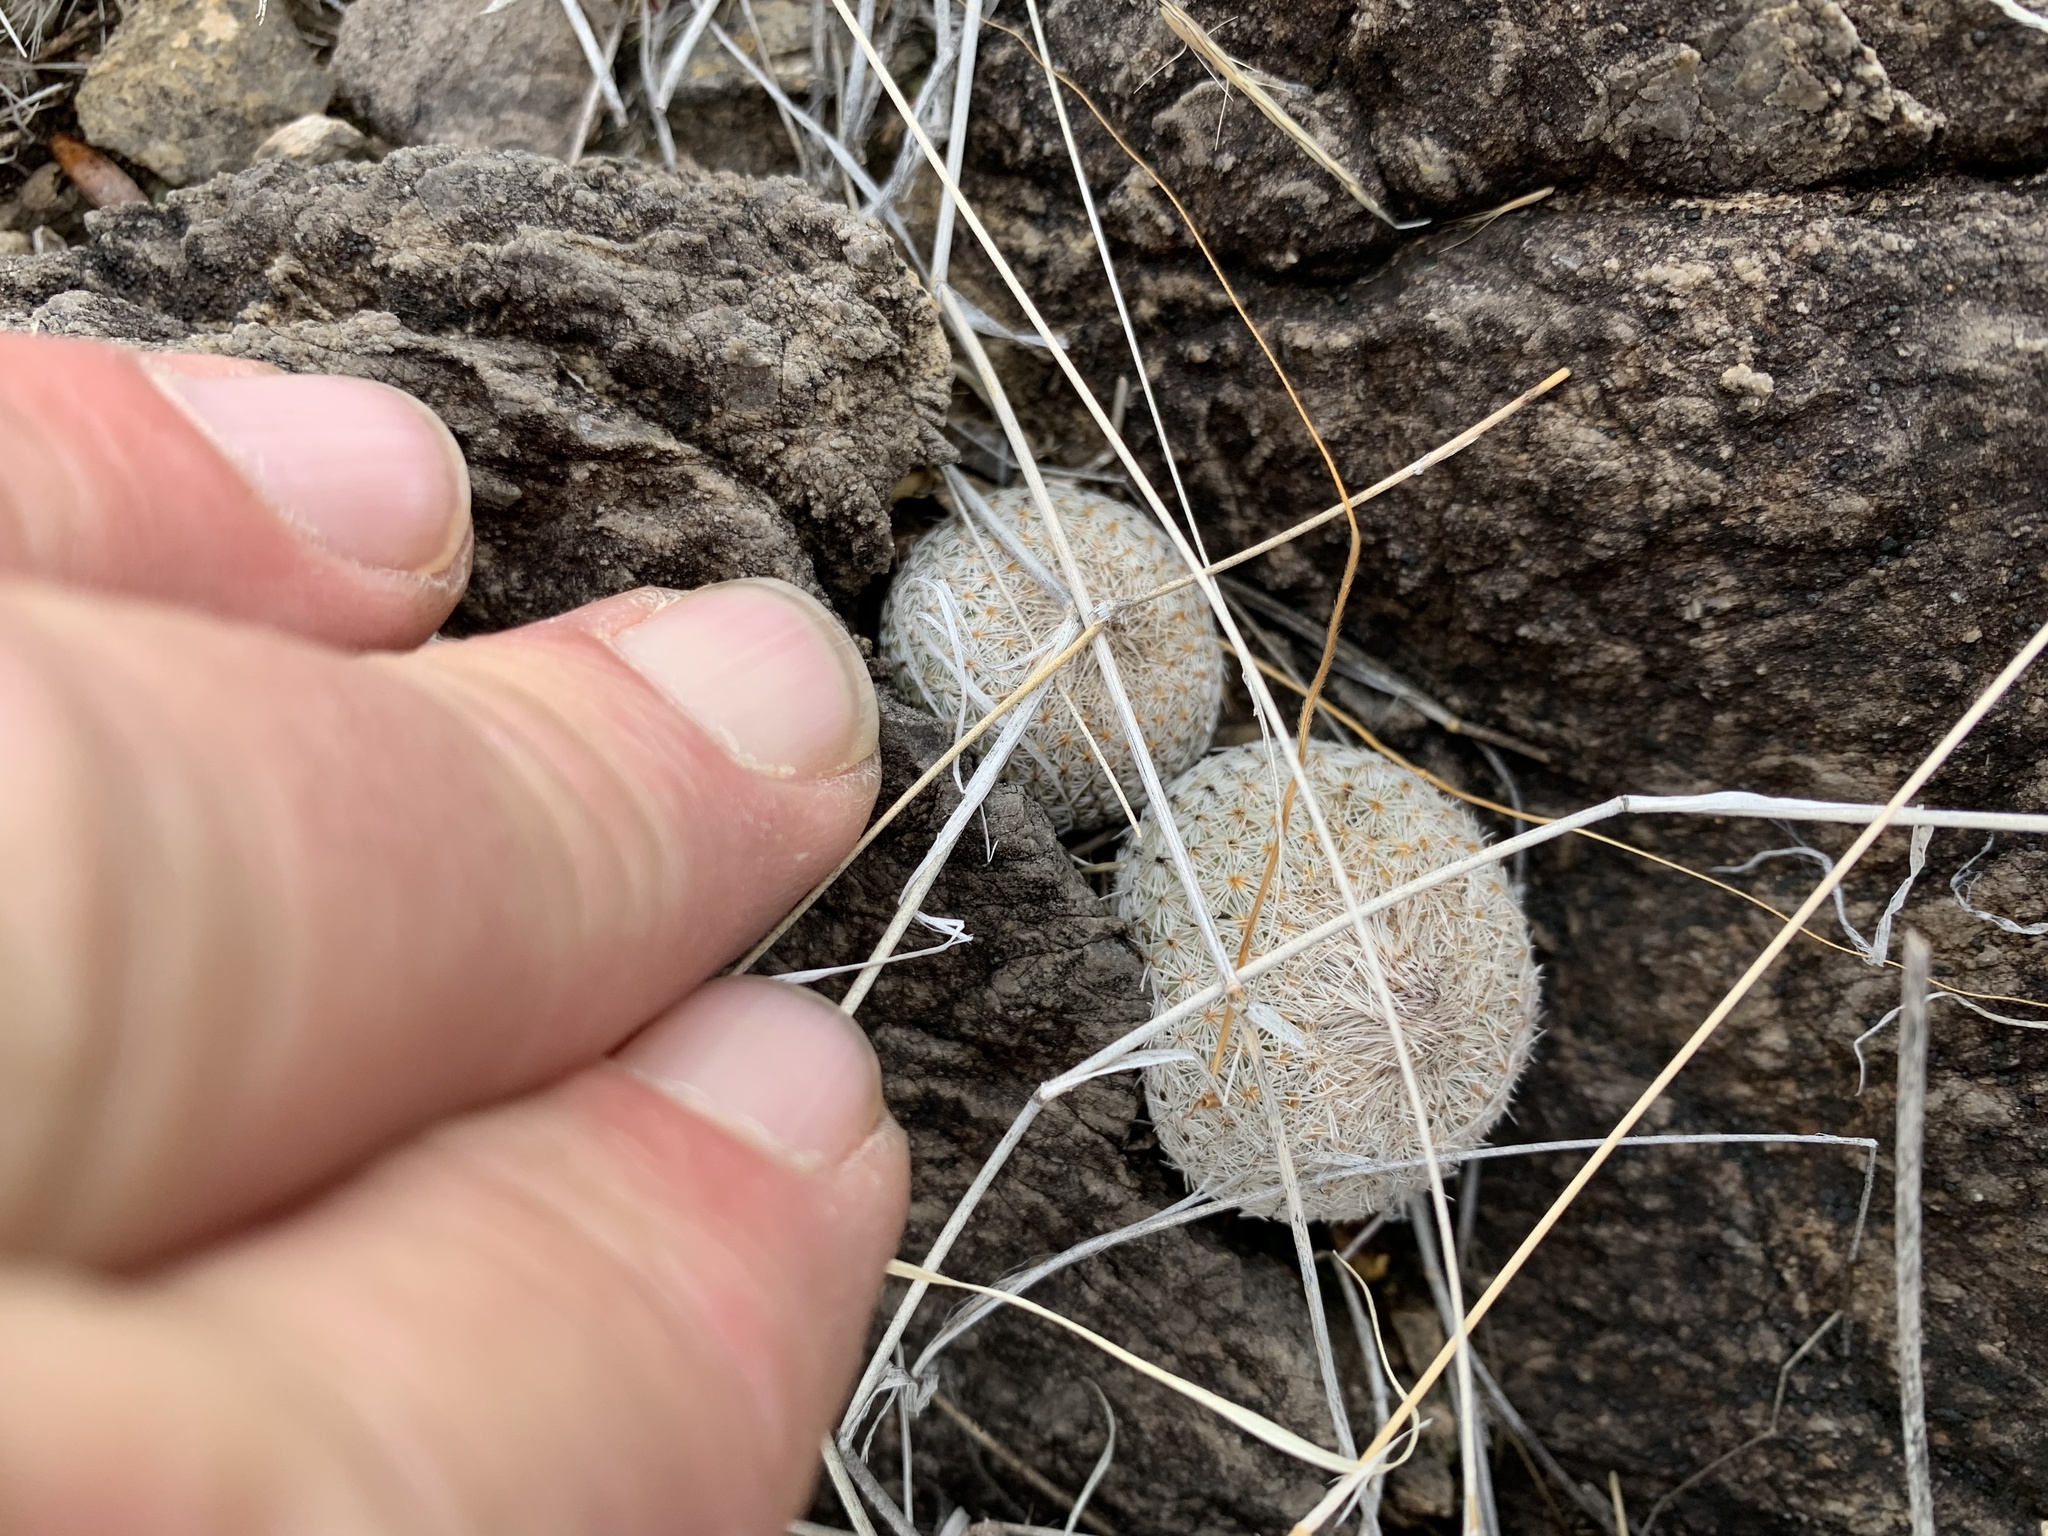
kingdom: Plantae
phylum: Tracheophyta
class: Magnoliopsida
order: Caryophyllales
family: Cactaceae
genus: Epithelantha
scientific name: Epithelantha micromeris
